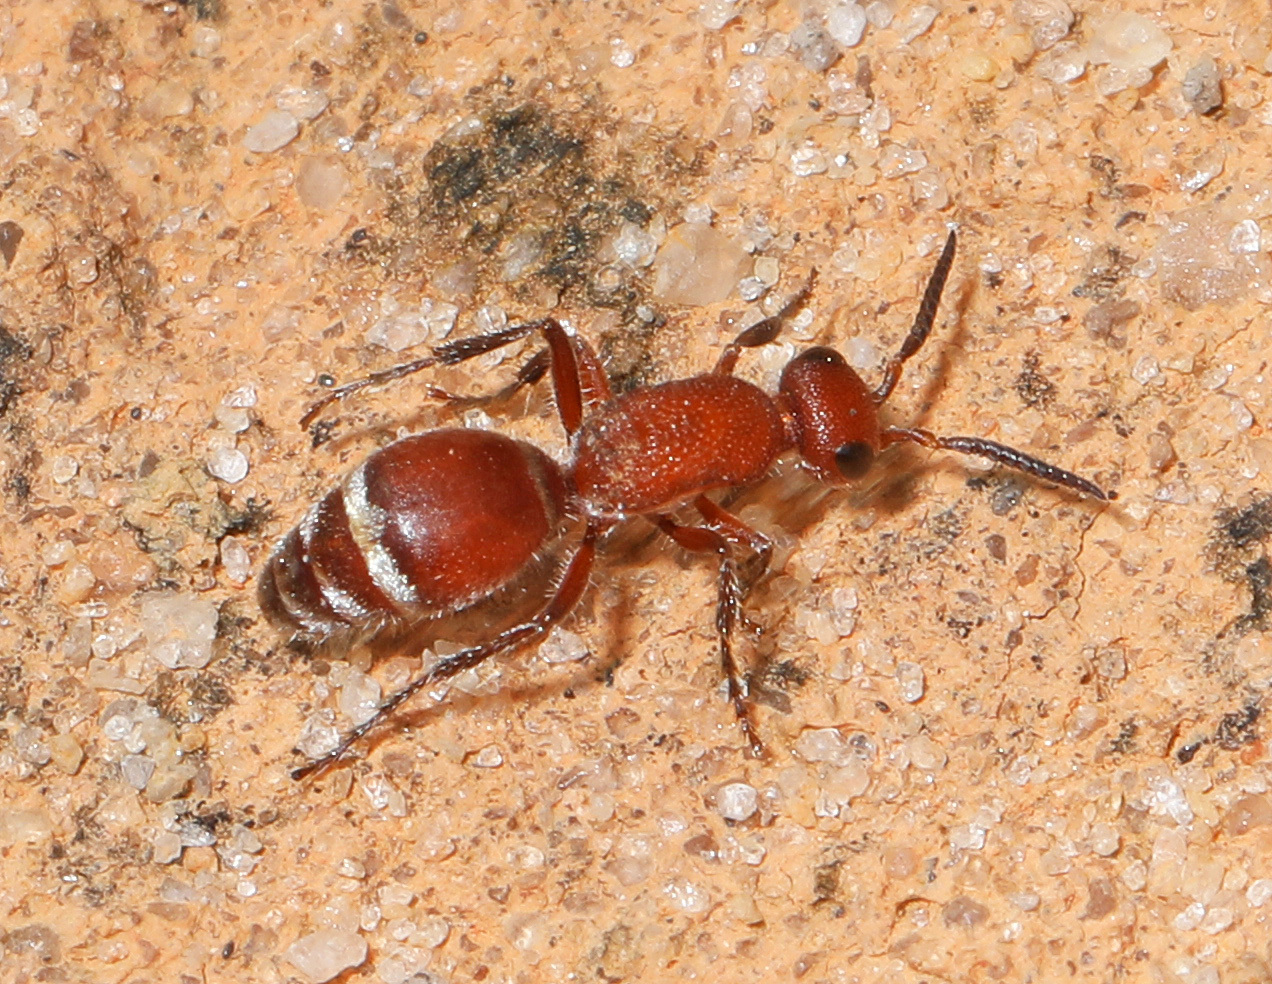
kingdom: Animalia
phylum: Arthropoda
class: Insecta
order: Hymenoptera
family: Mutillidae
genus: Timulla
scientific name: Timulla
